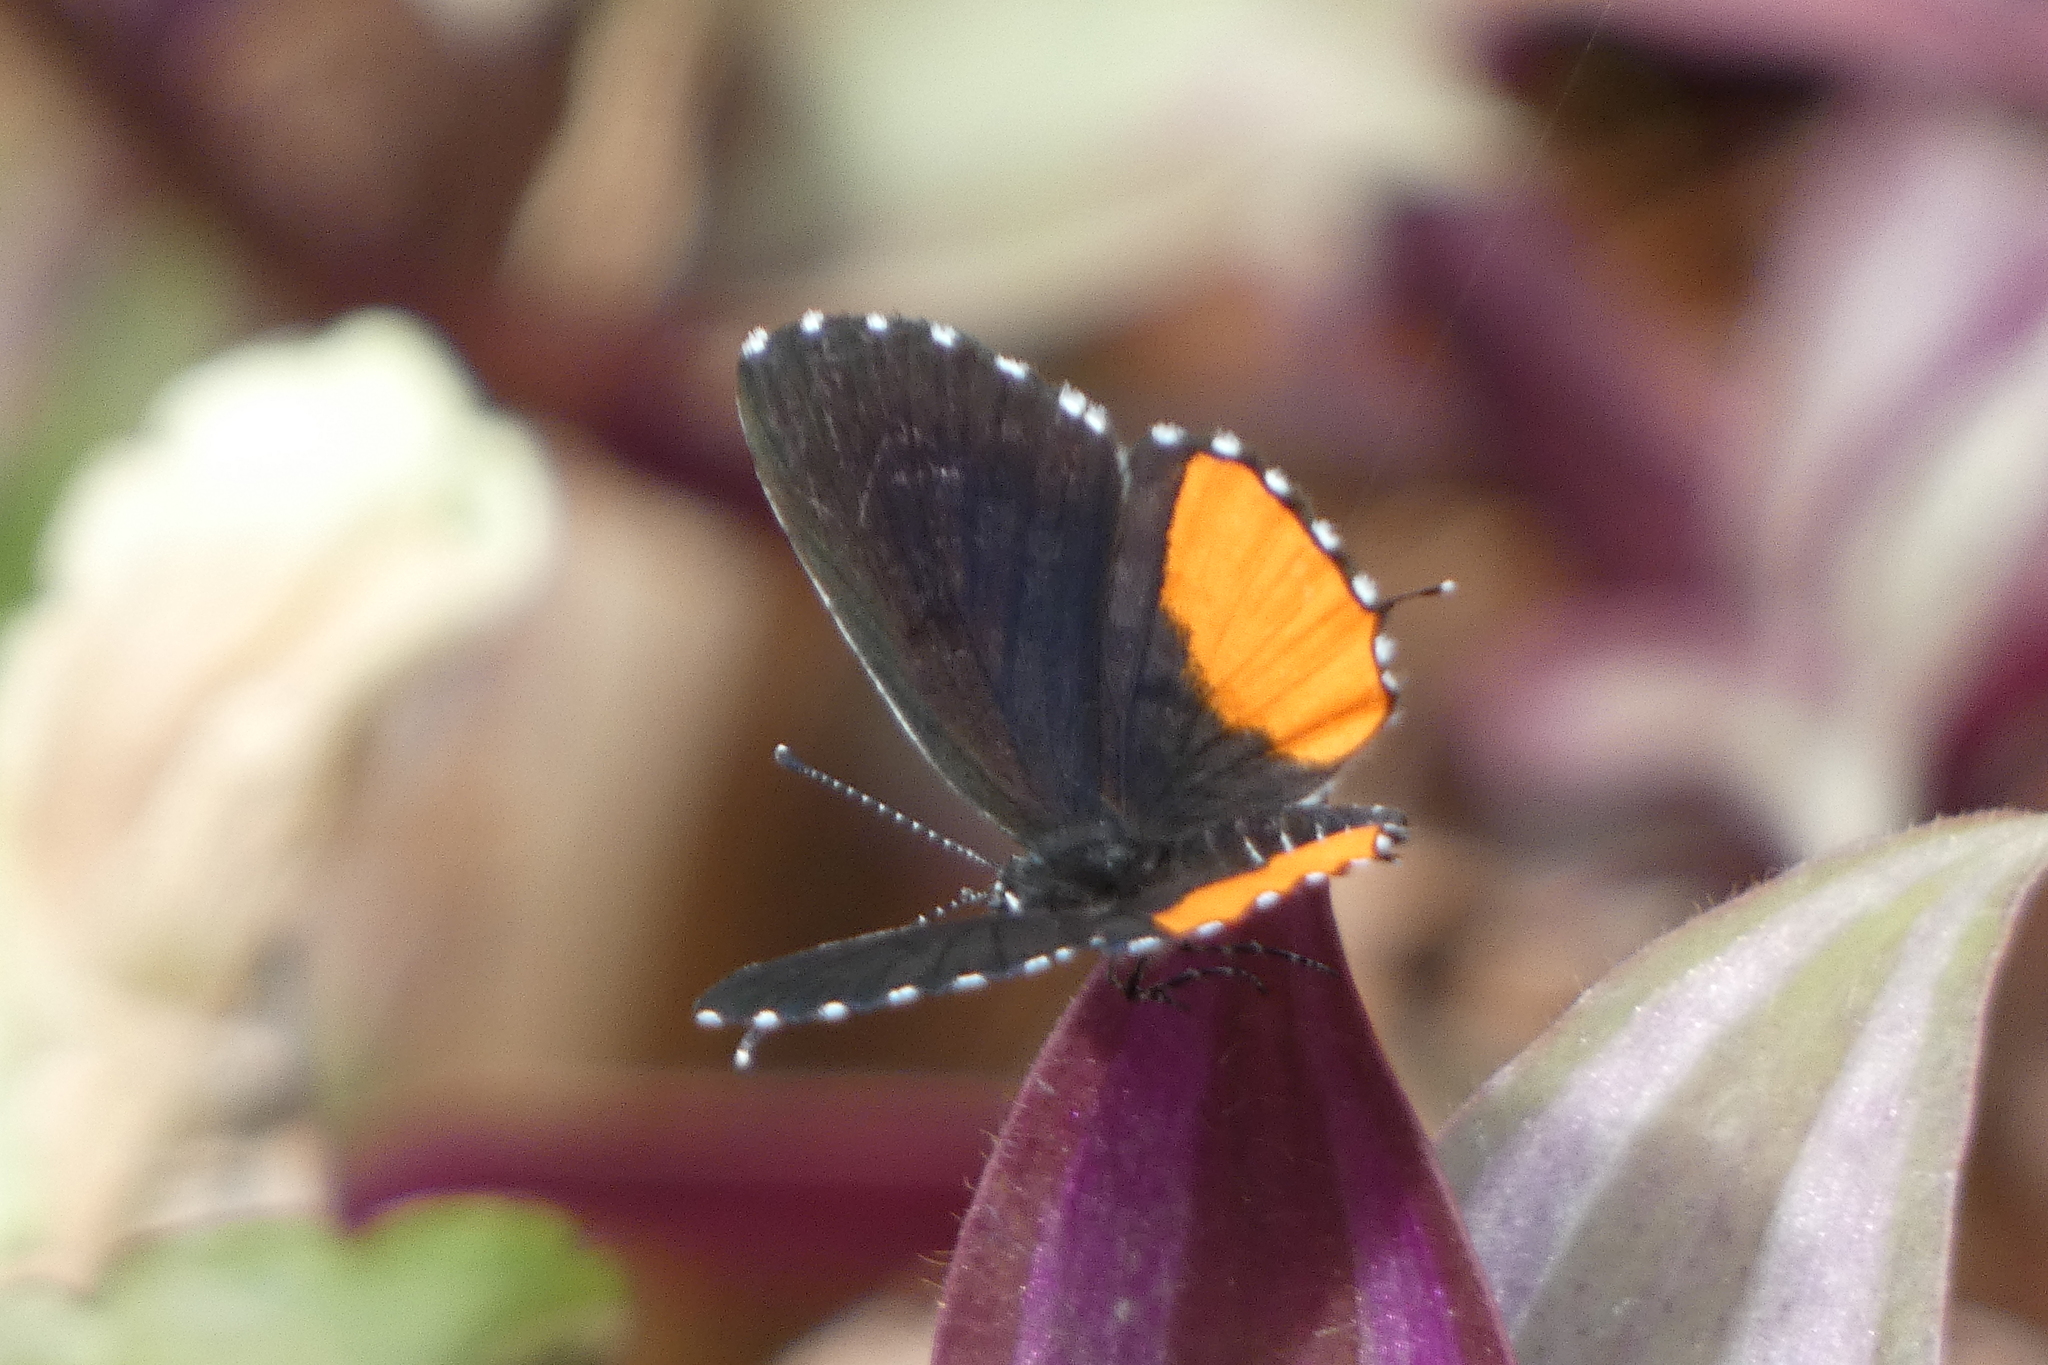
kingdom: Animalia
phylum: Arthropoda
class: Insecta
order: Lepidoptera
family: Lycaenidae
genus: Talicada
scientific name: Talicada nyseus
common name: Red pierrot
